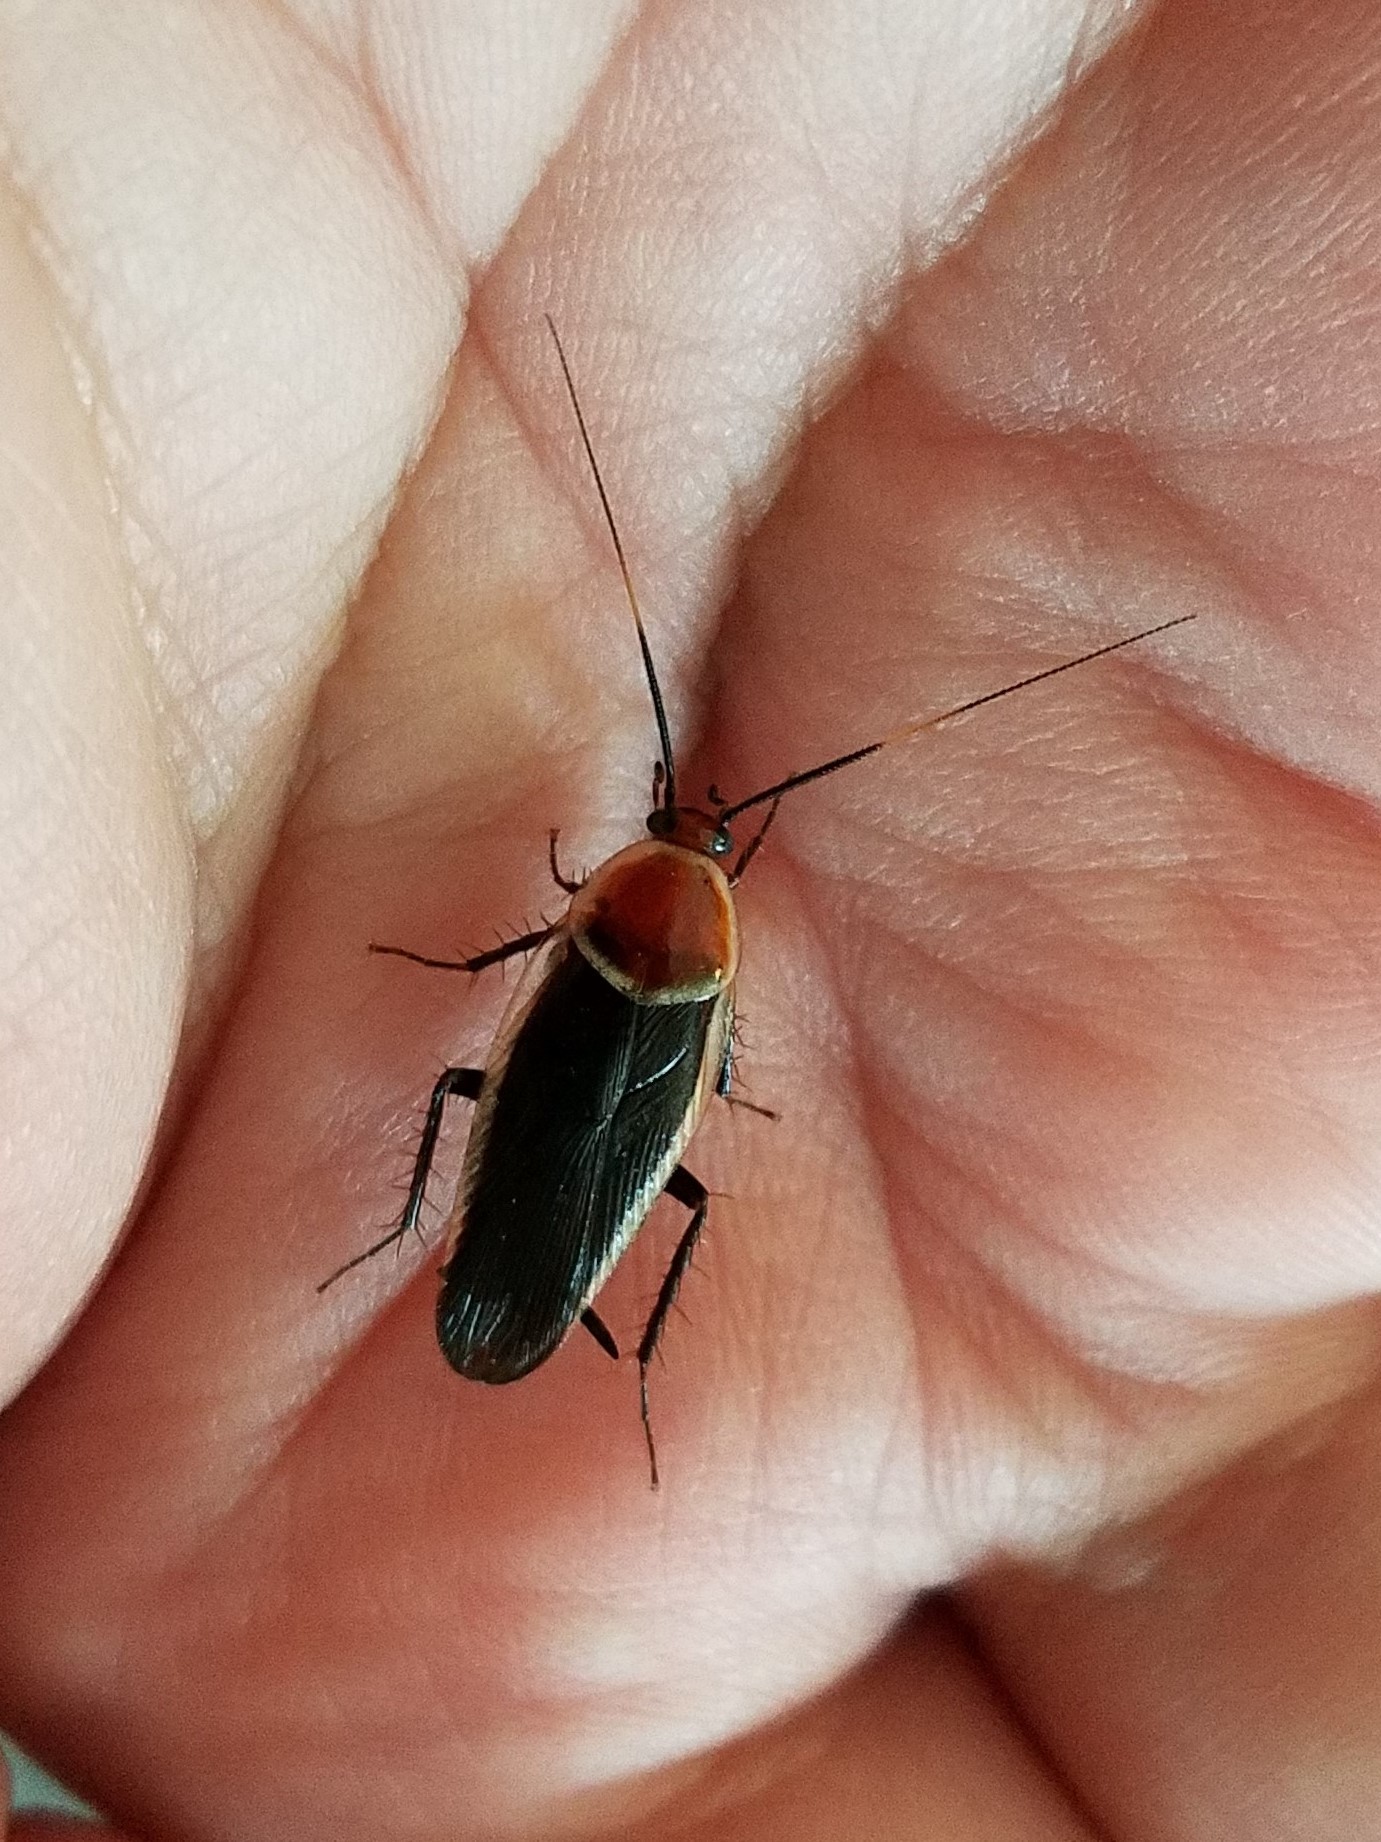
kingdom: Animalia
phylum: Arthropoda
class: Insecta
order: Blattodea
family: Ectobiidae
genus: Pseudomops
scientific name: Pseudomops septentrionalis
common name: Pale-bordered field cockroach
